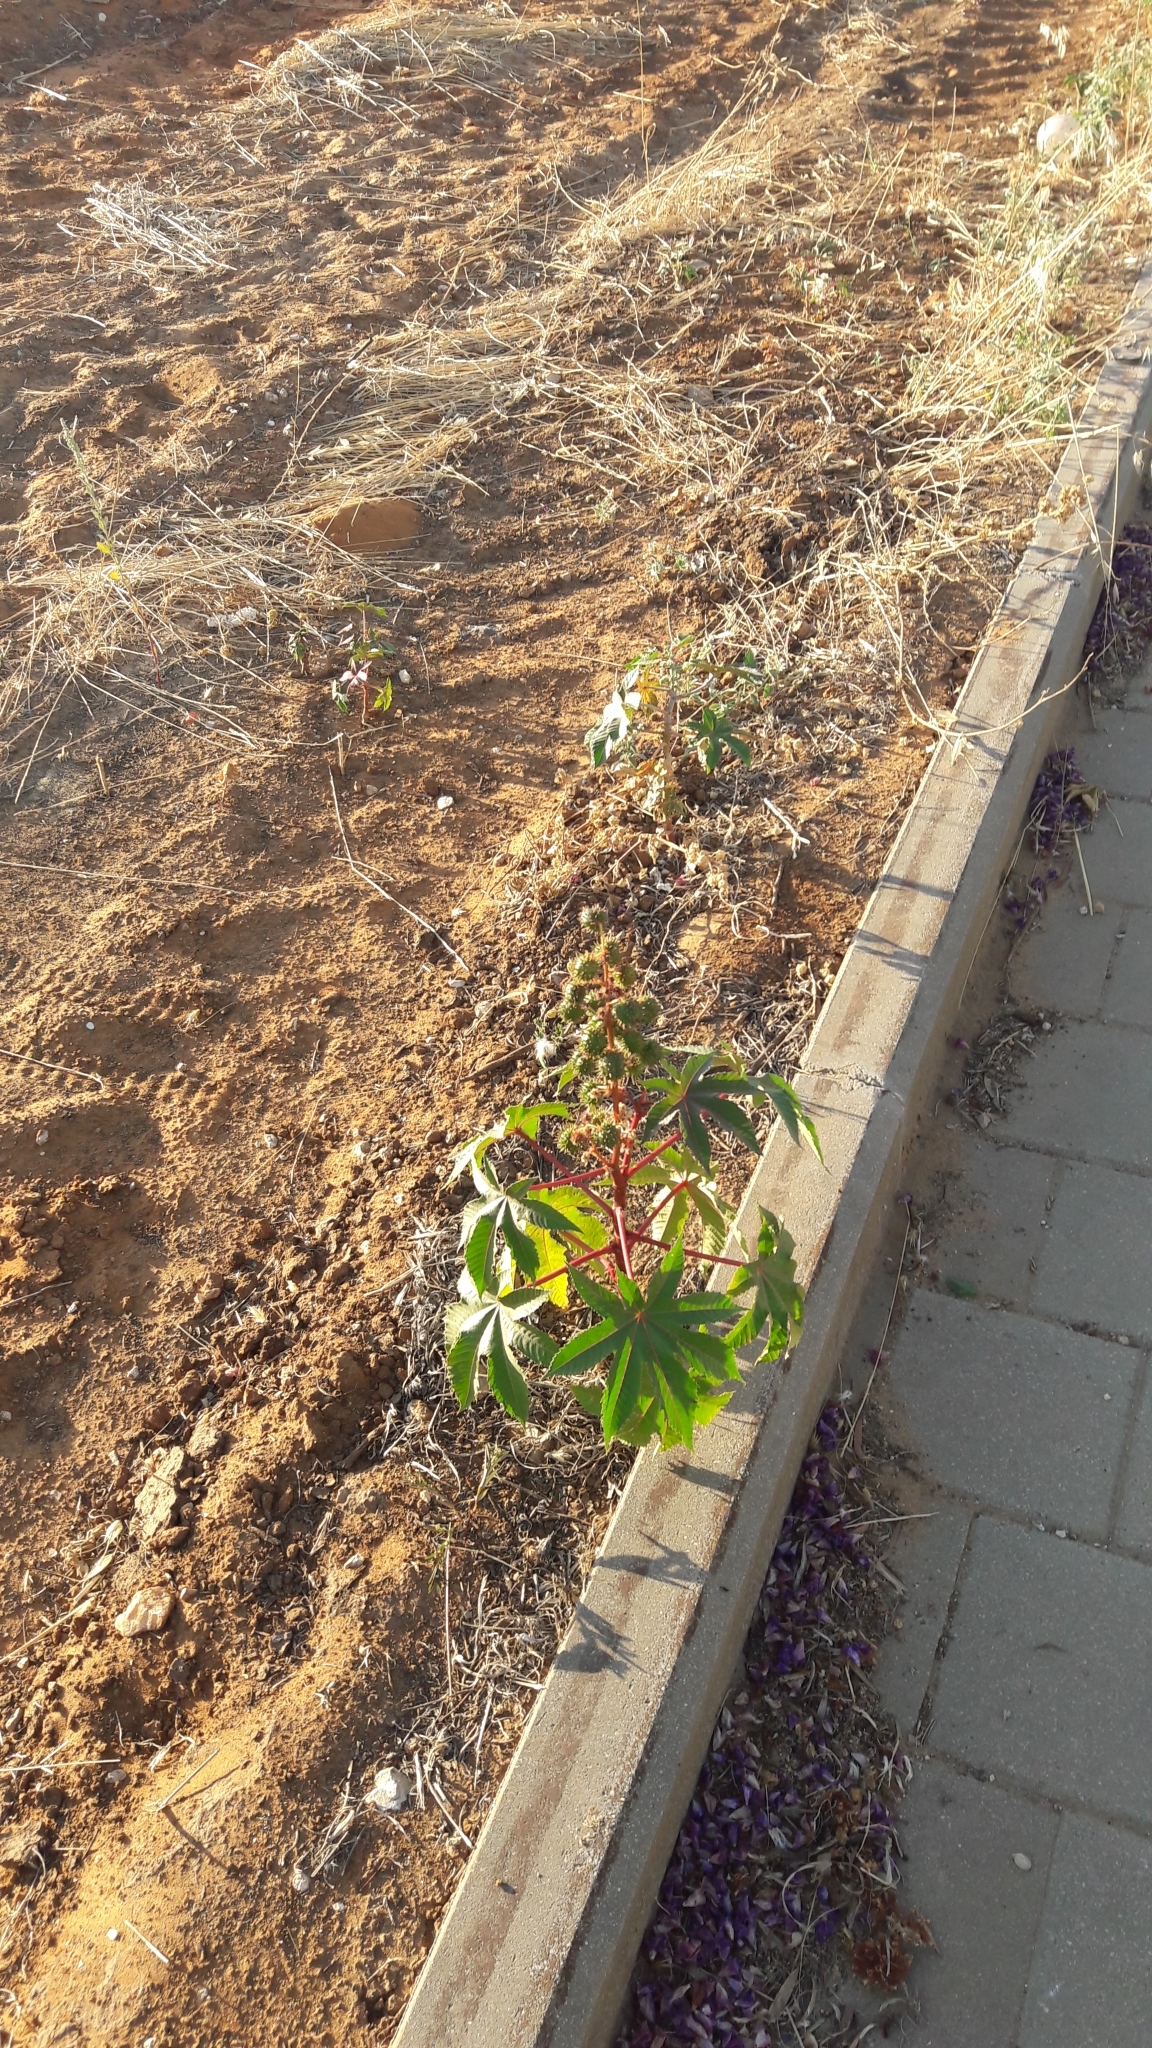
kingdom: Plantae
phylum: Tracheophyta
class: Magnoliopsida
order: Malpighiales
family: Euphorbiaceae
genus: Ricinus
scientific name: Ricinus communis
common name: Castor-oil-plant
